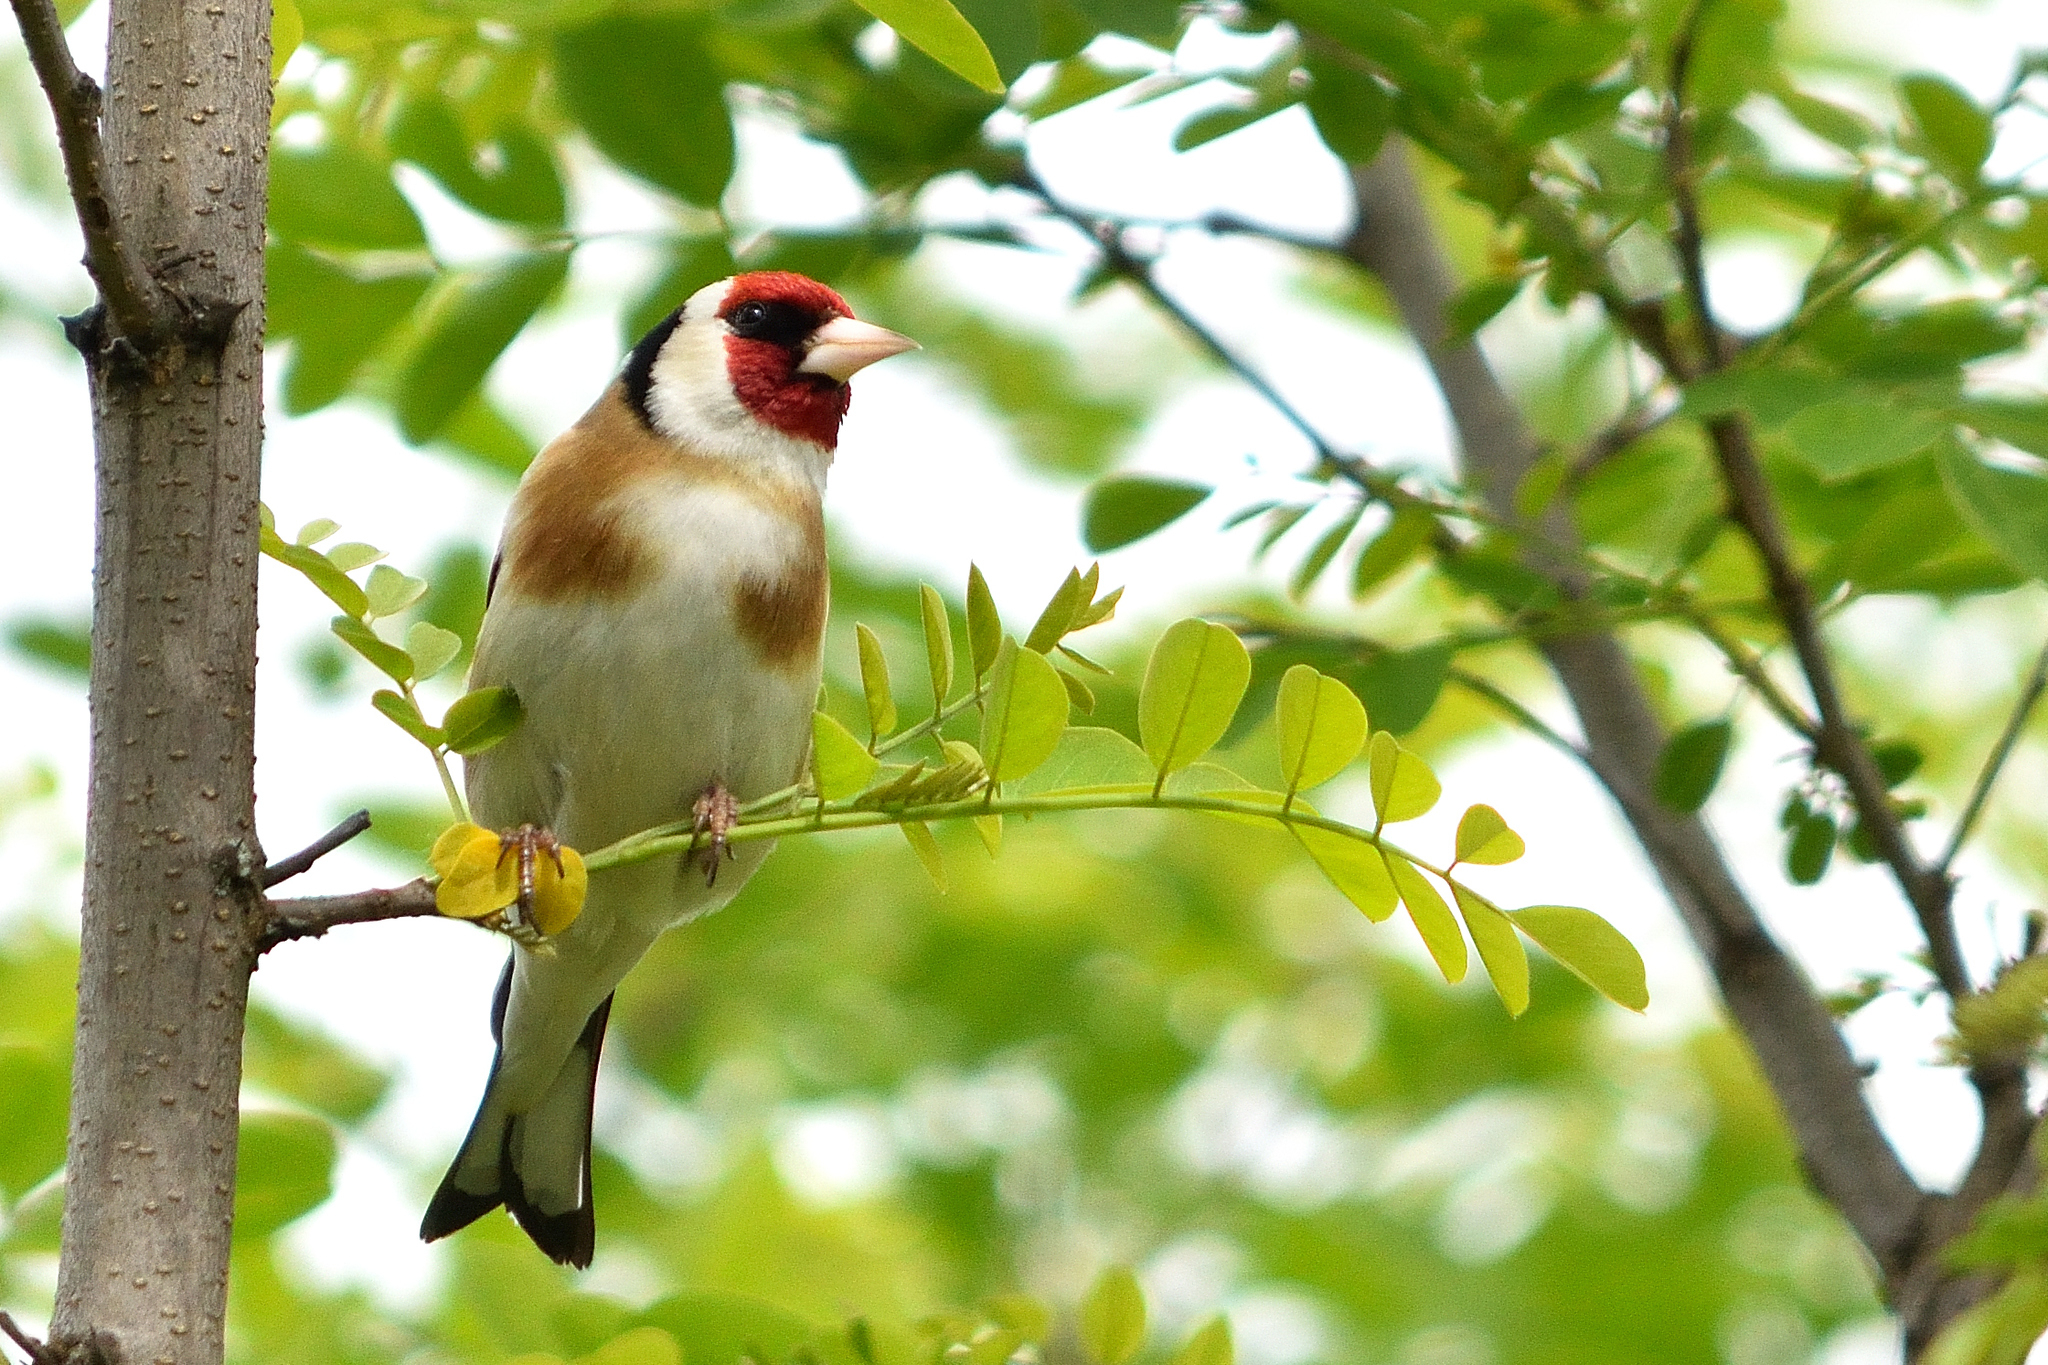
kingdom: Animalia
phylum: Chordata
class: Aves
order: Passeriformes
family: Fringillidae
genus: Carduelis
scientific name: Carduelis carduelis
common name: European goldfinch
